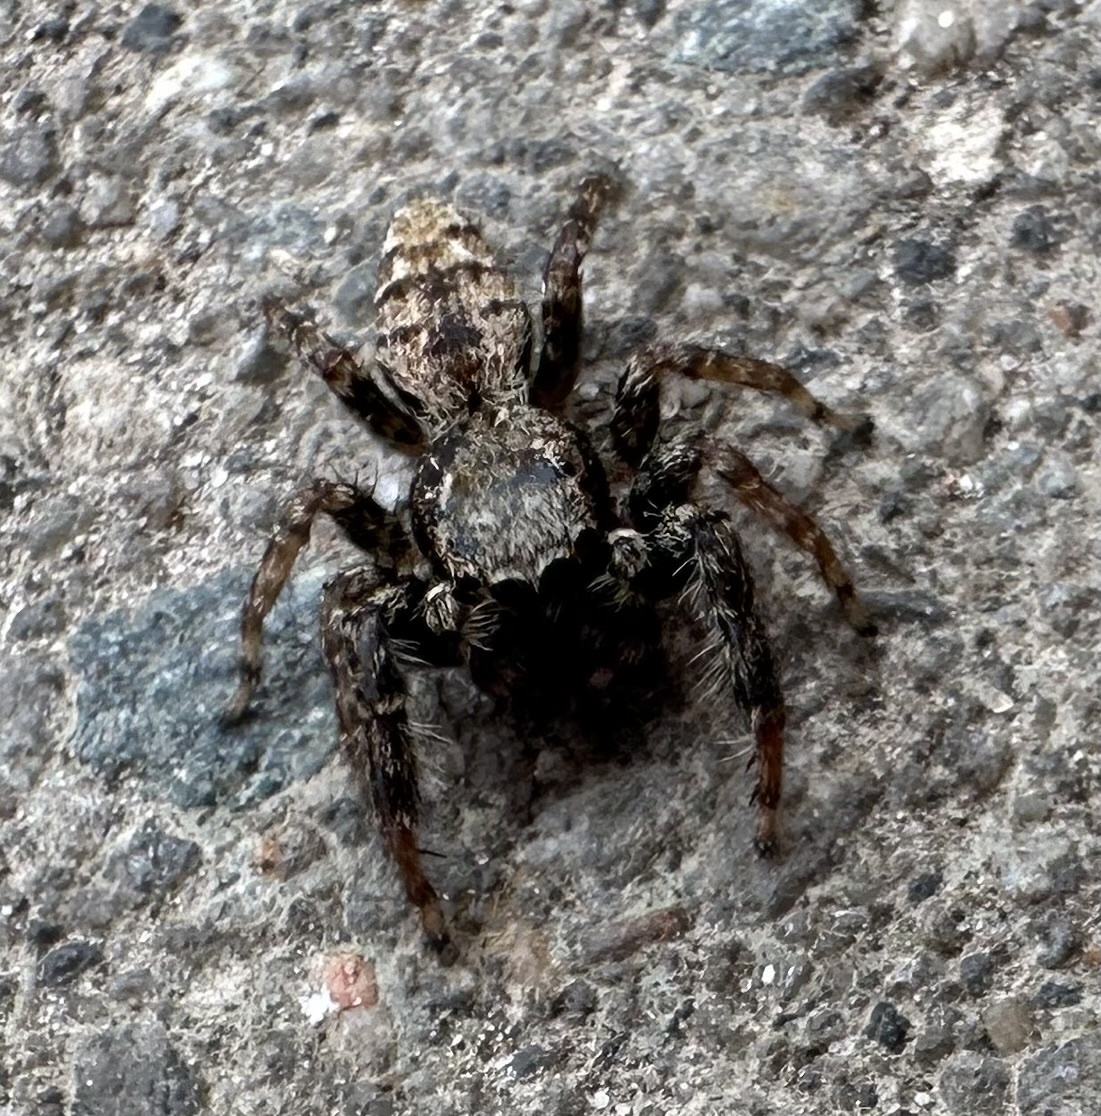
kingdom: Animalia
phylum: Arthropoda
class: Arachnida
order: Araneae
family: Salticidae
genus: Marpissa
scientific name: Marpissa muscosa
